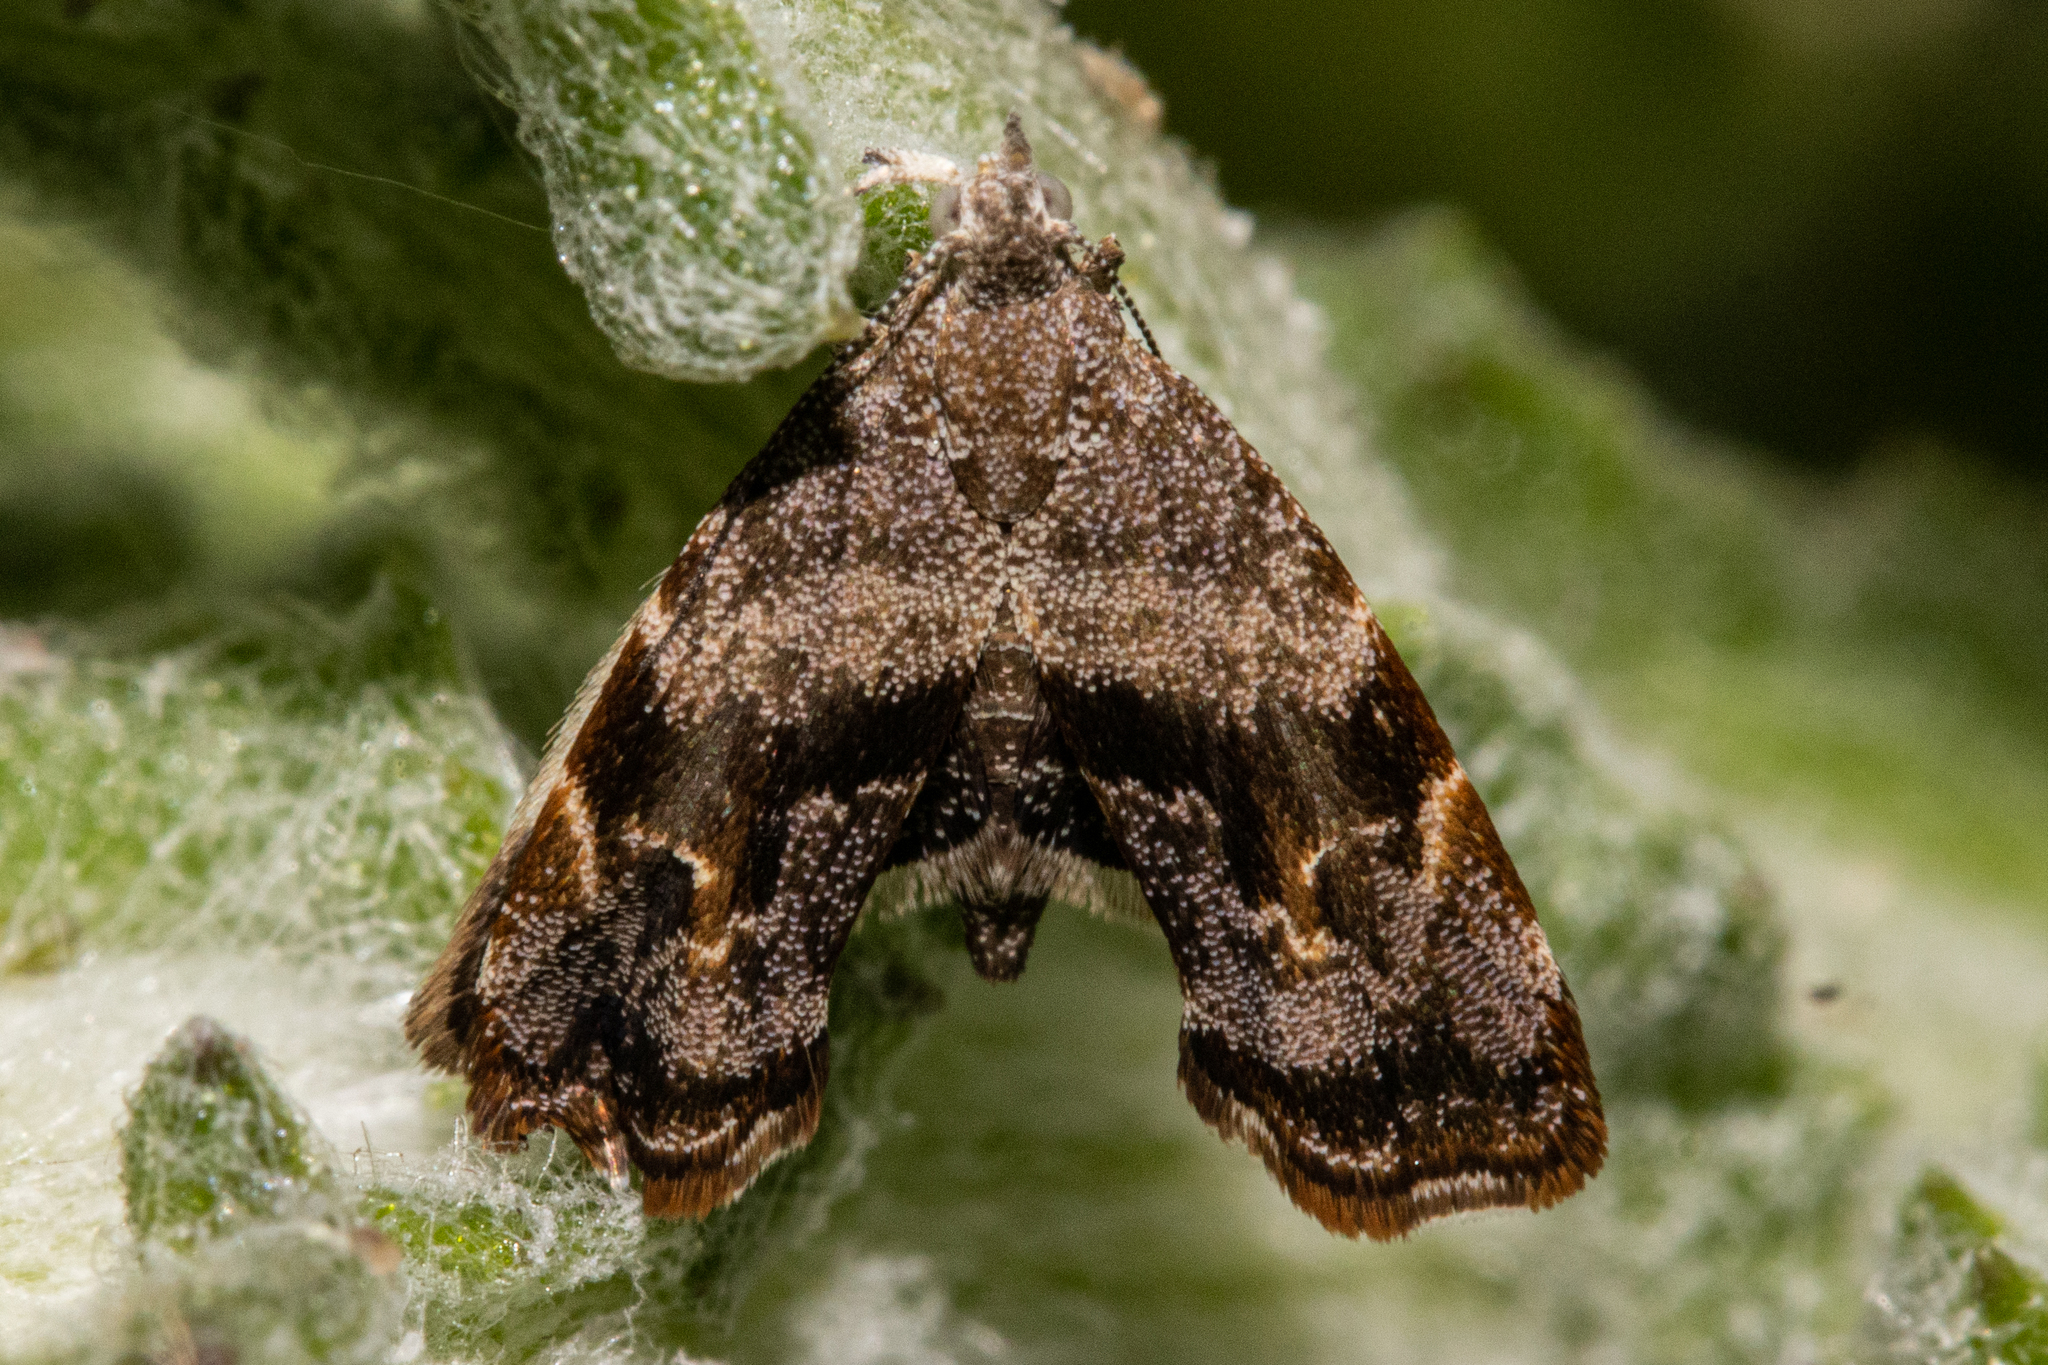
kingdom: Animalia
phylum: Arthropoda
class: Insecta
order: Lepidoptera
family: Choreutidae
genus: Asterivora
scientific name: Asterivora colpota
